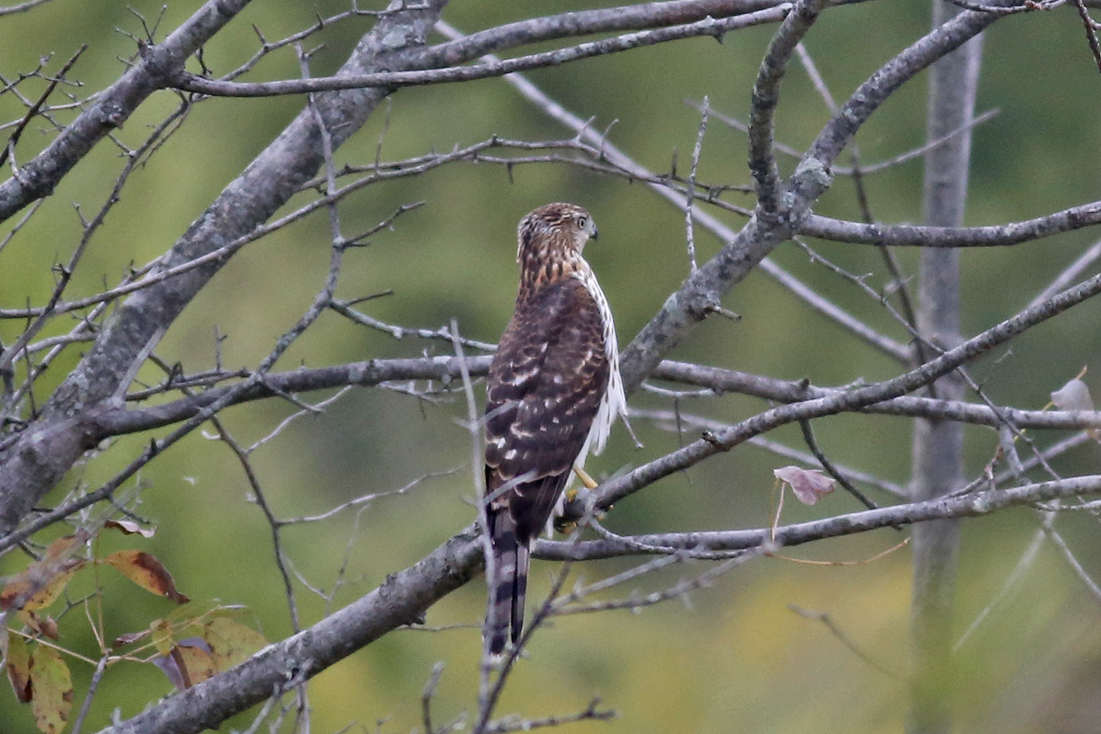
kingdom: Animalia
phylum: Chordata
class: Aves
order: Accipitriformes
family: Accipitridae
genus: Accipiter
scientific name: Accipiter cooperii
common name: Cooper's hawk
